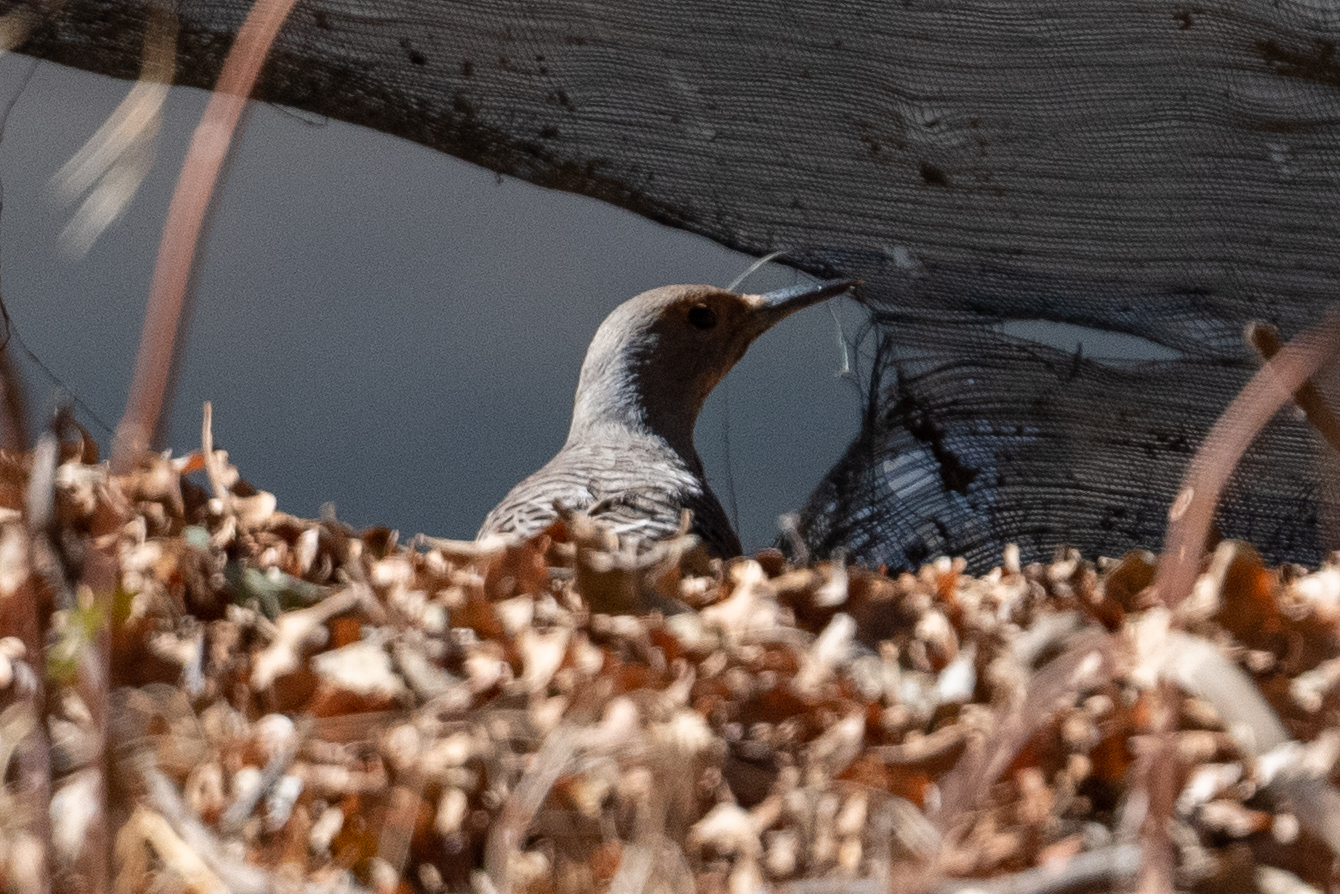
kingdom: Animalia
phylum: Chordata
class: Aves
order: Piciformes
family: Picidae
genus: Colaptes
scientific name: Colaptes auratus
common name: Northern flicker
